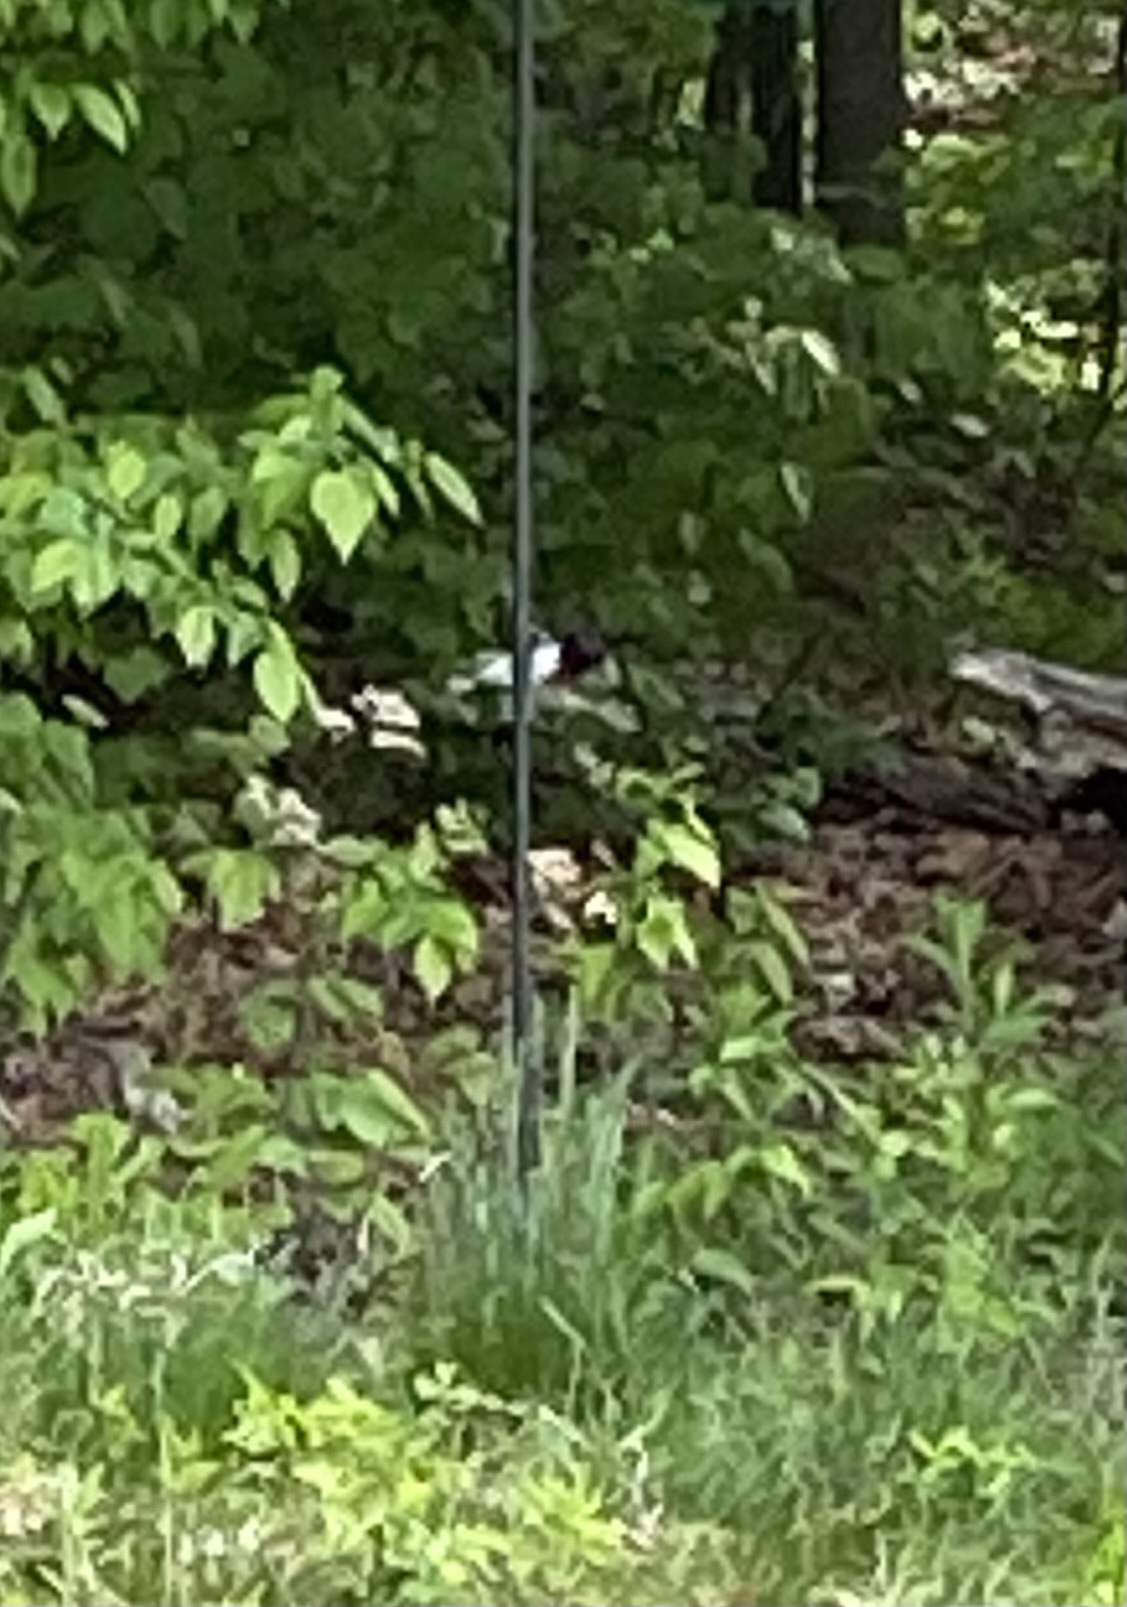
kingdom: Animalia
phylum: Chordata
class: Aves
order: Passeriformes
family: Cardinalidae
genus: Pheucticus
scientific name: Pheucticus ludovicianus
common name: Rose-breasted grosbeak
